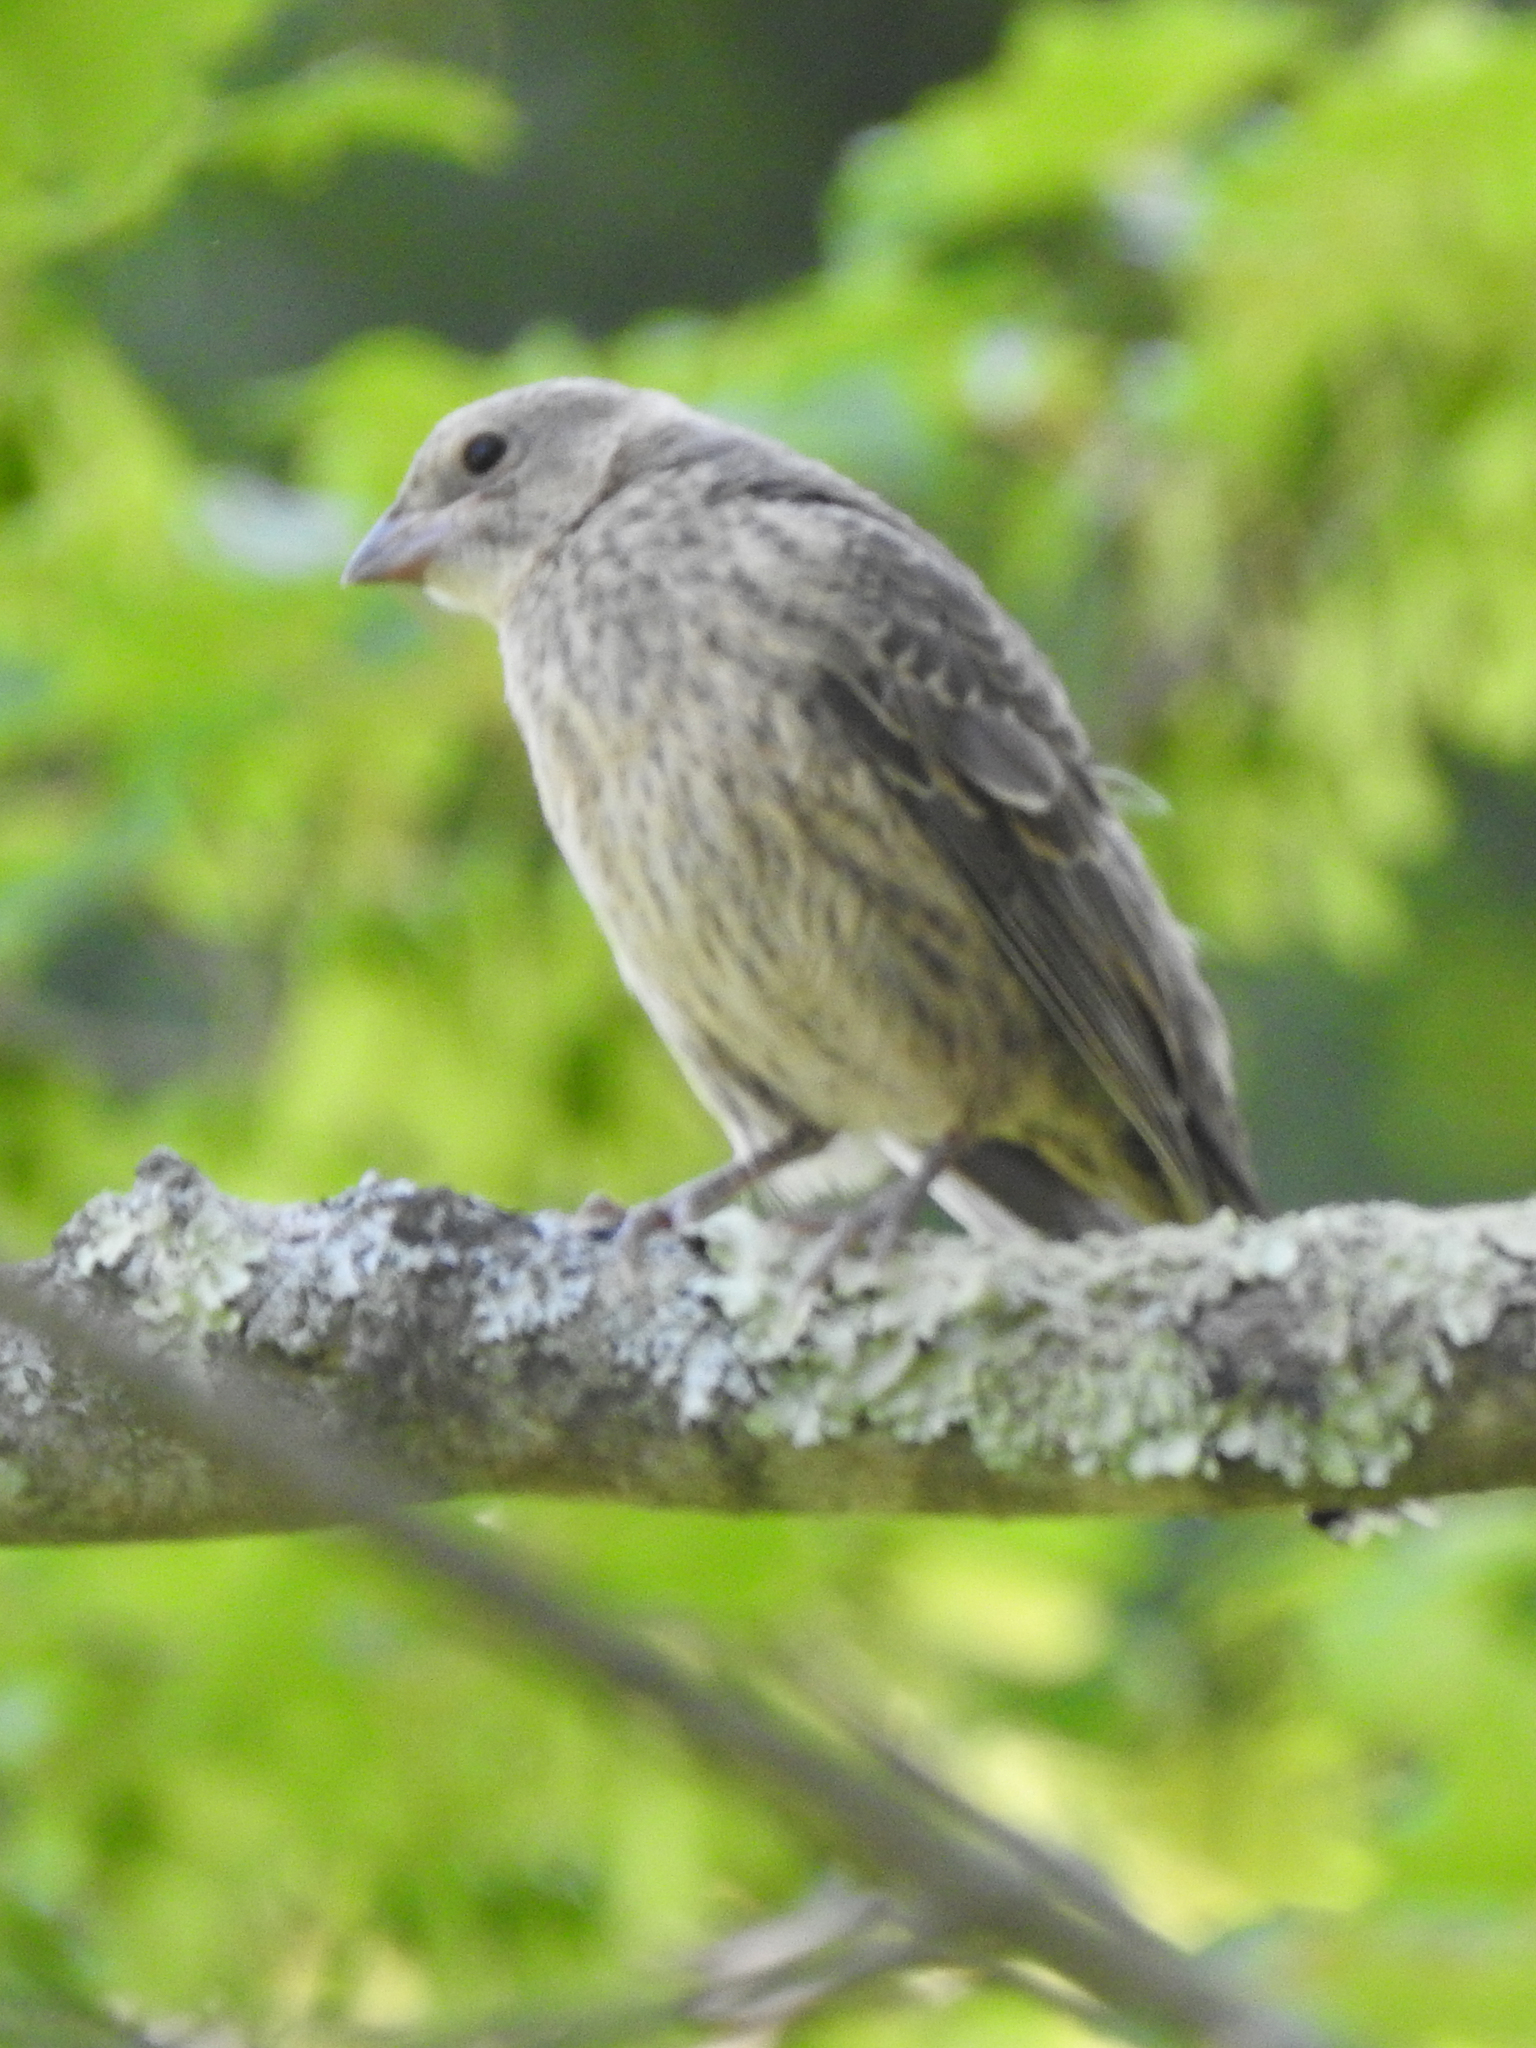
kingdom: Animalia
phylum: Chordata
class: Aves
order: Passeriformes
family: Icteridae
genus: Molothrus
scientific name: Molothrus ater
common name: Brown-headed cowbird
